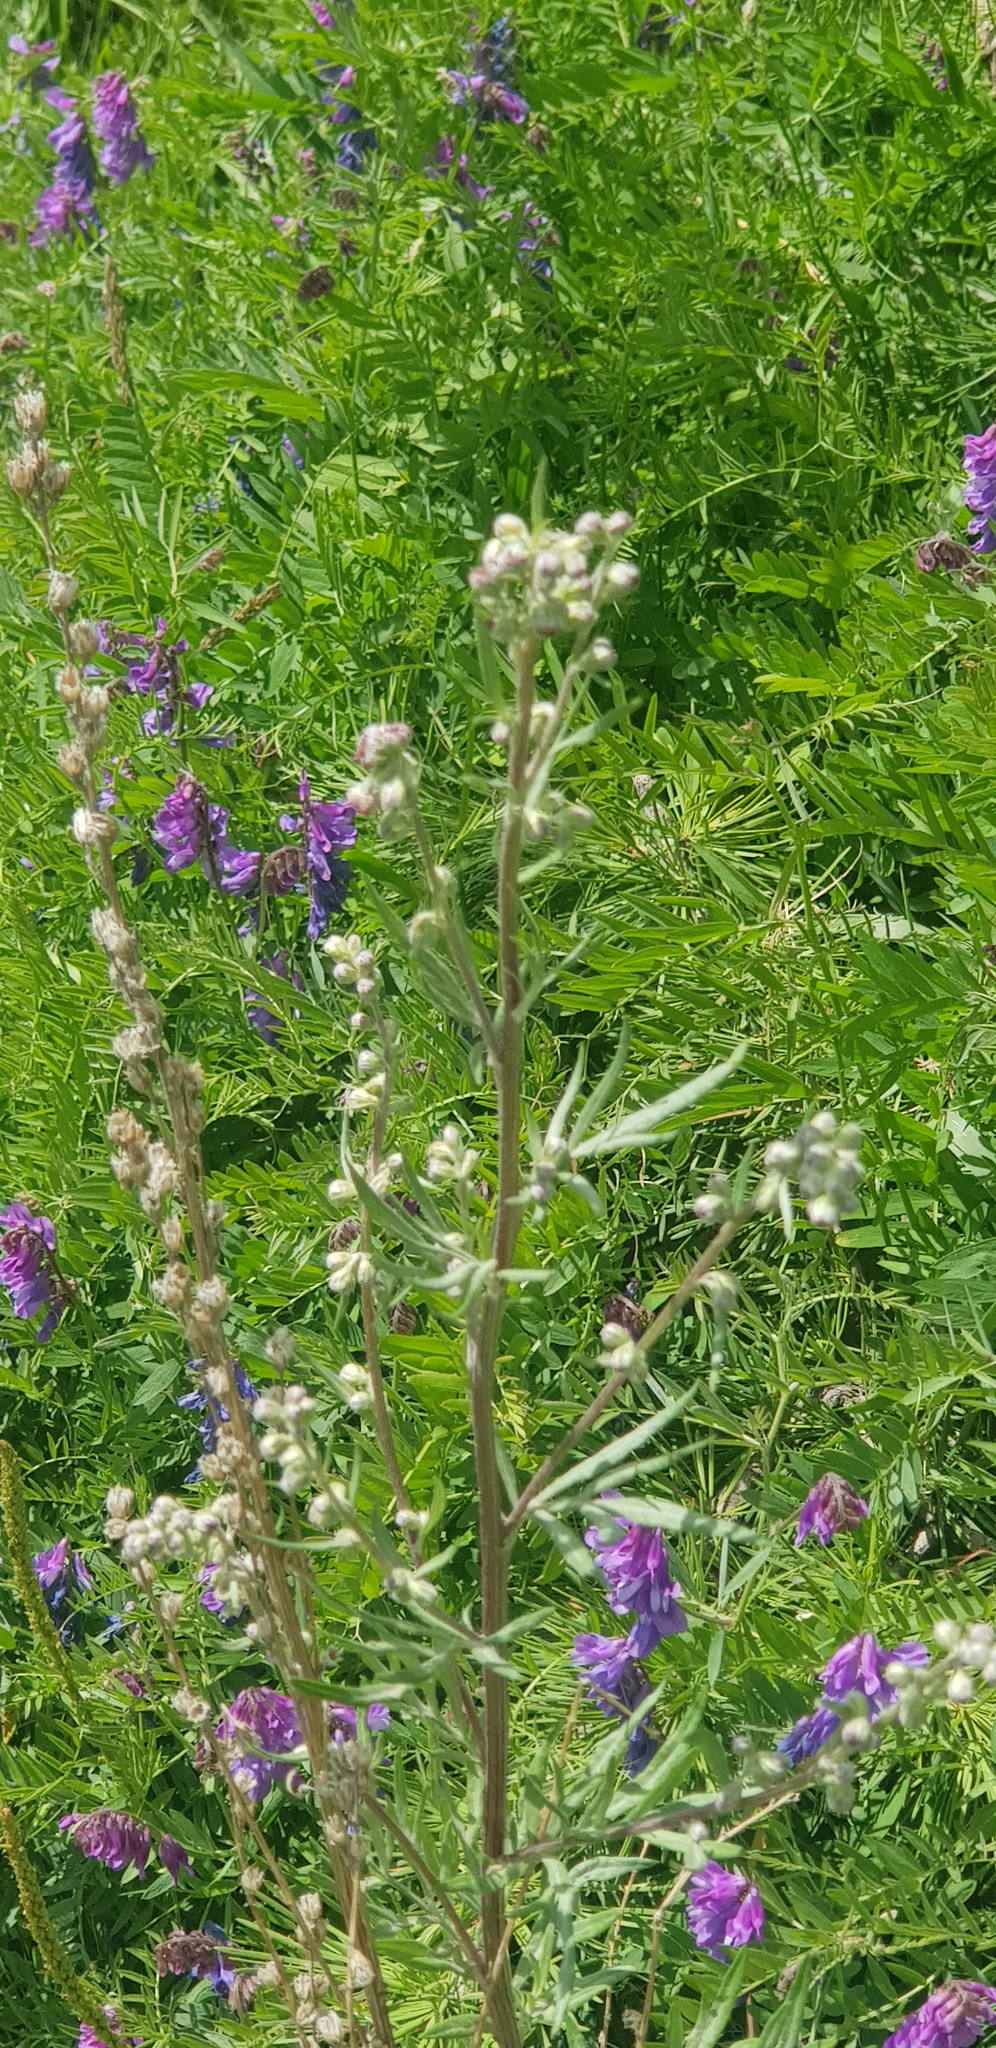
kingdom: Plantae
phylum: Tracheophyta
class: Magnoliopsida
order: Asterales
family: Asteraceae
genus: Artemisia
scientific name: Artemisia vulgaris
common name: Mugwort
